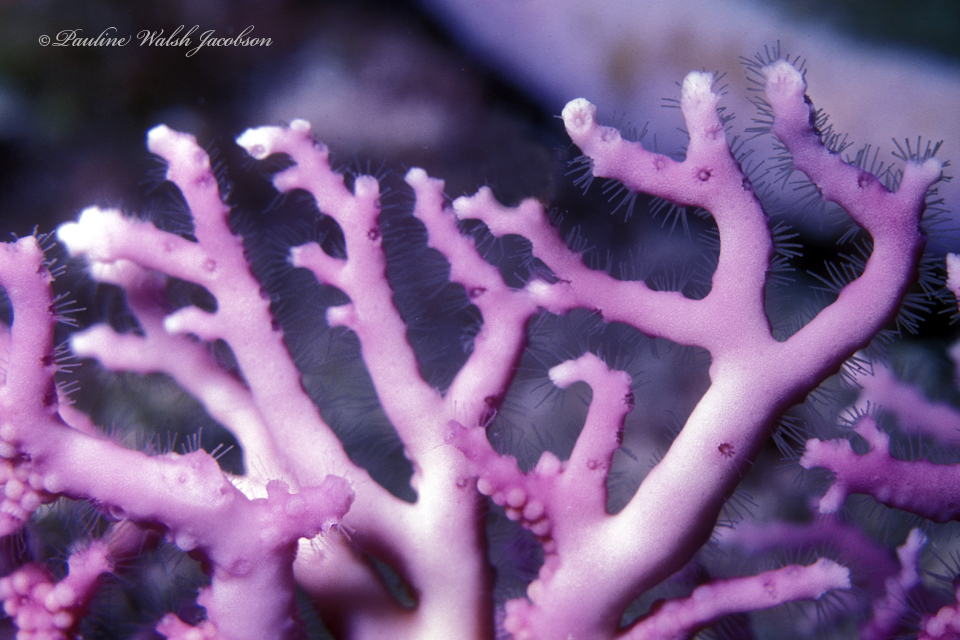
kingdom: Animalia
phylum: Cnidaria
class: Hydrozoa
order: Anthoathecata
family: Stylasteridae
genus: Stylaster
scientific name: Stylaster roseus
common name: Rose lace coral
